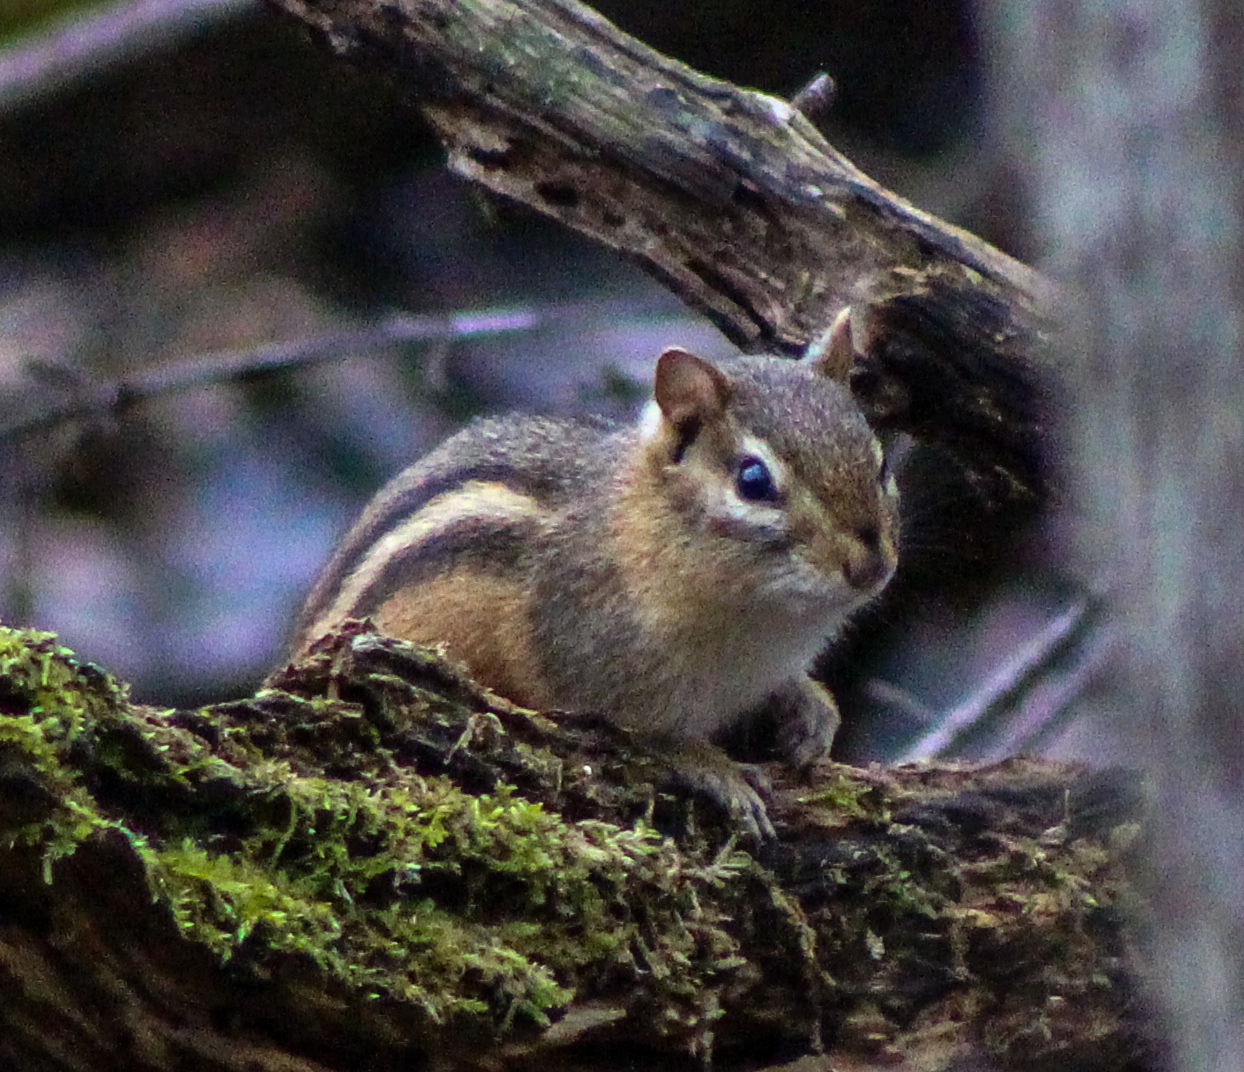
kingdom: Animalia
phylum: Chordata
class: Mammalia
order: Rodentia
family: Sciuridae
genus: Tamias
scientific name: Tamias striatus
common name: Eastern chipmunk
